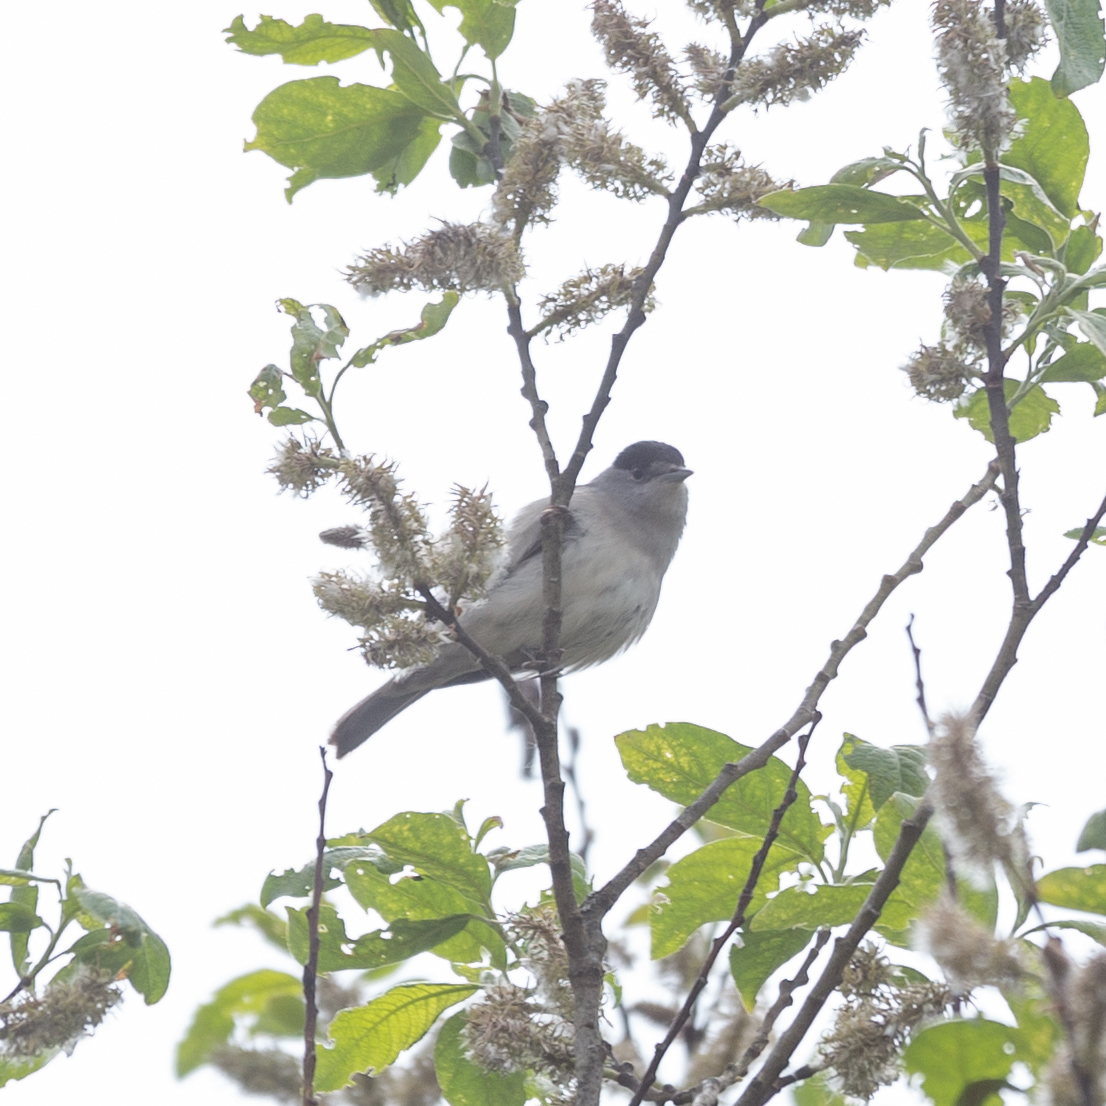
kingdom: Animalia
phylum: Chordata
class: Aves
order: Passeriformes
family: Sylviidae
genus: Sylvia
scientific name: Sylvia atricapilla
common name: Eurasian blackcap
